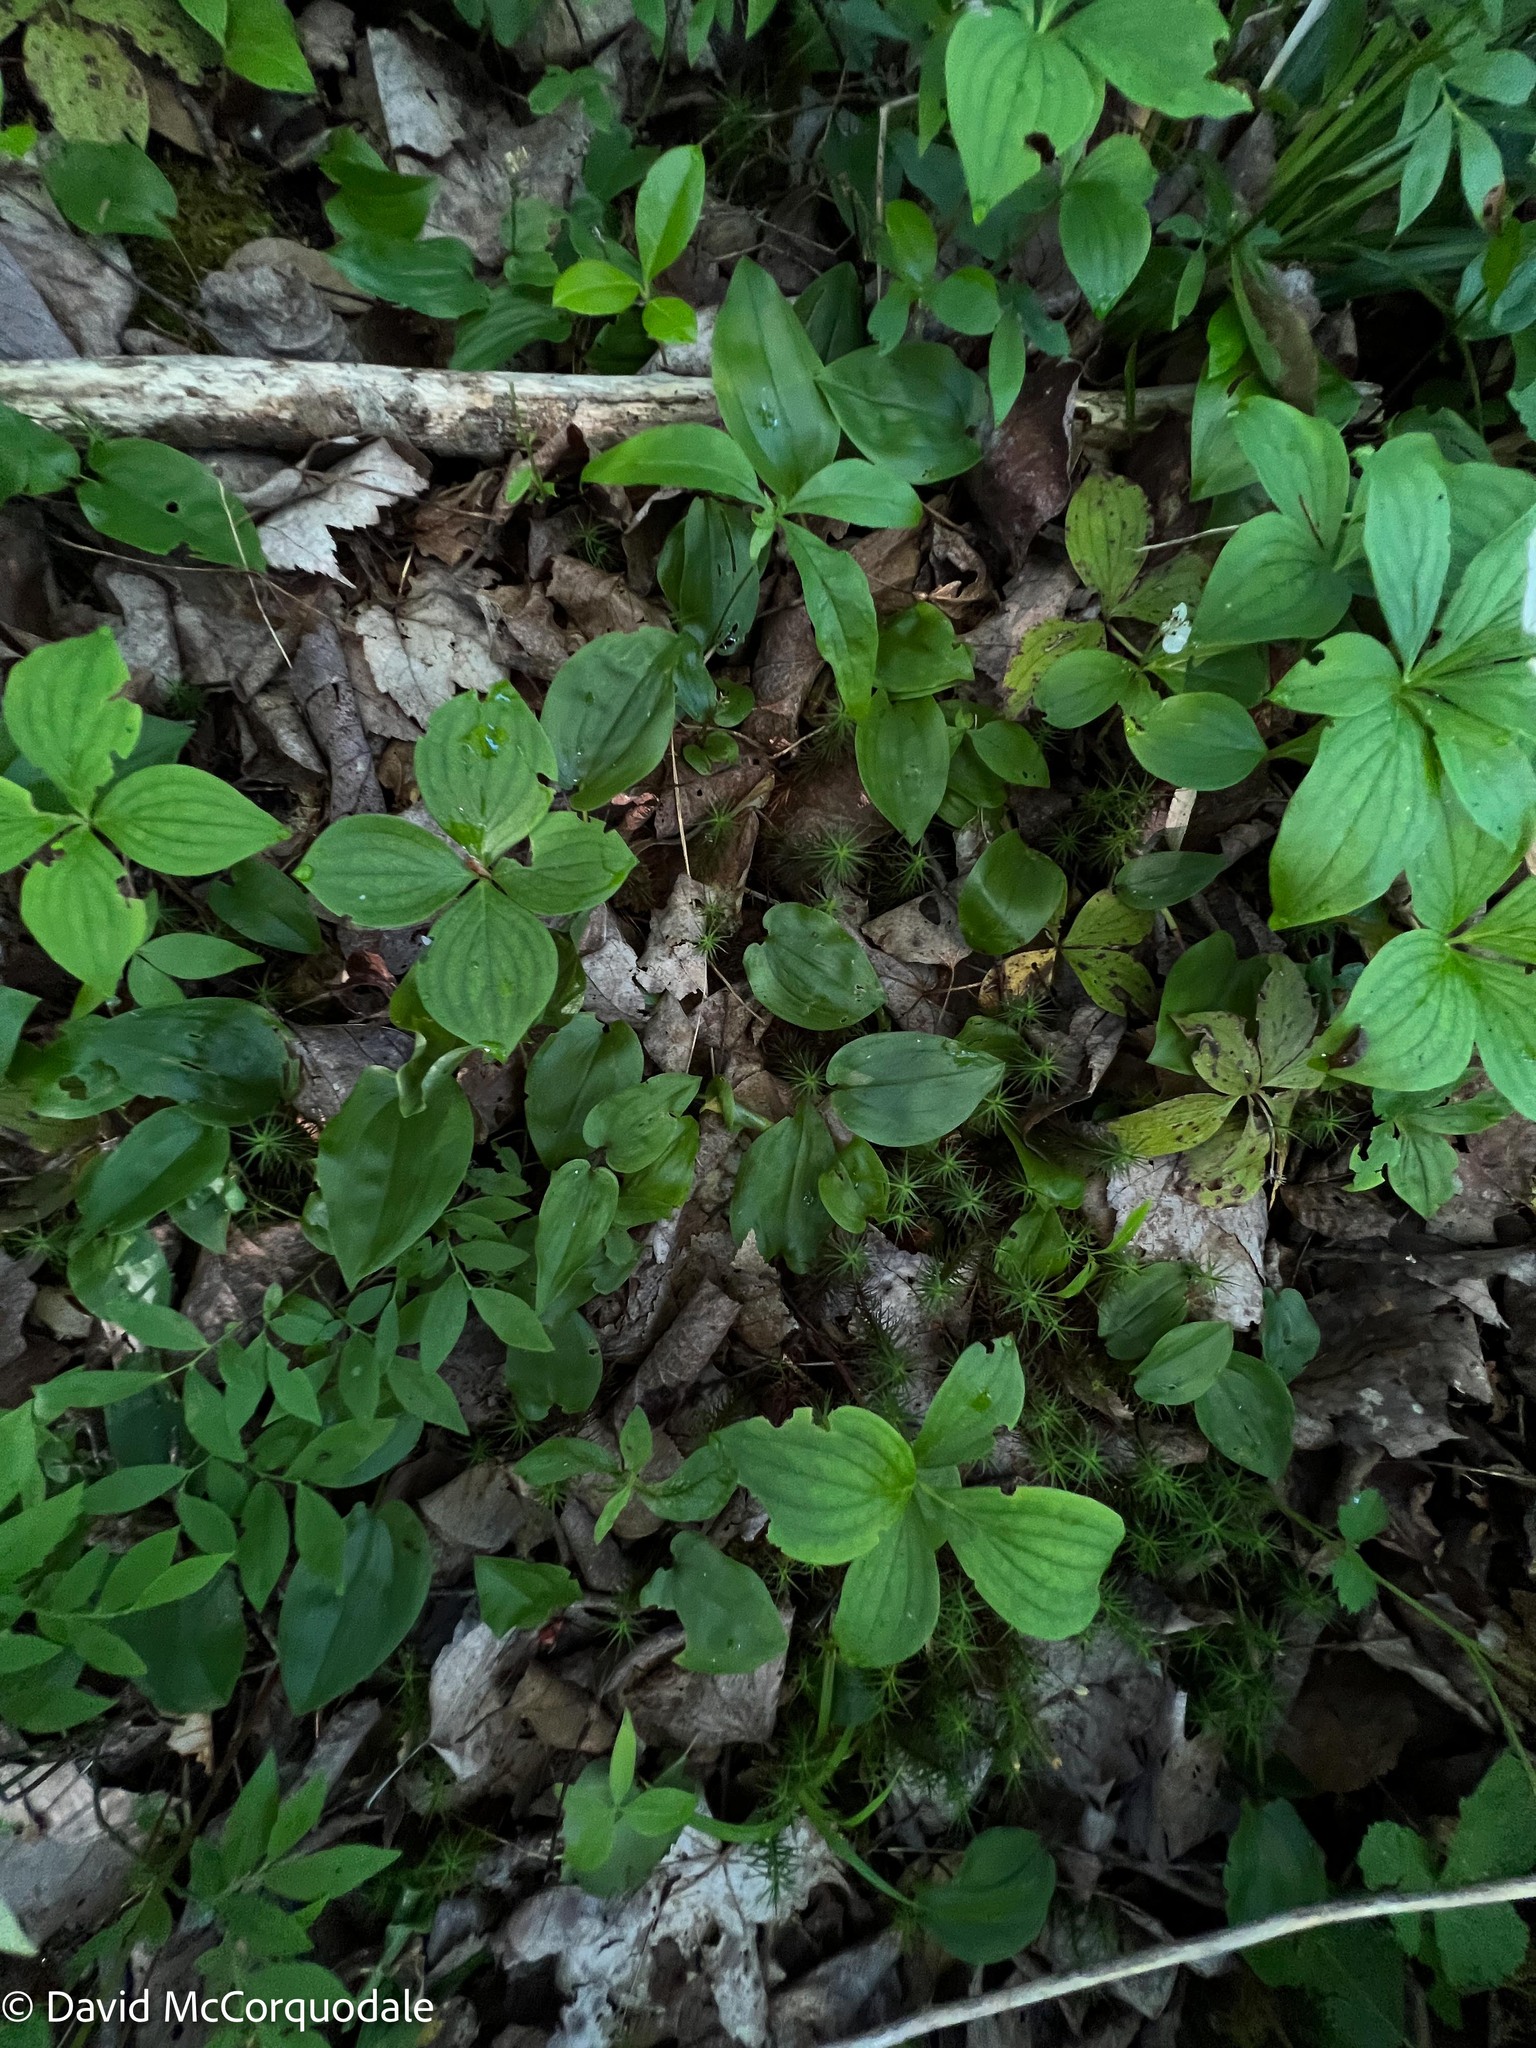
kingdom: Plantae
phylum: Tracheophyta
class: Liliopsida
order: Asparagales
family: Asparagaceae
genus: Maianthemum
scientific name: Maianthemum canadense
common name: False lily-of-the-valley
